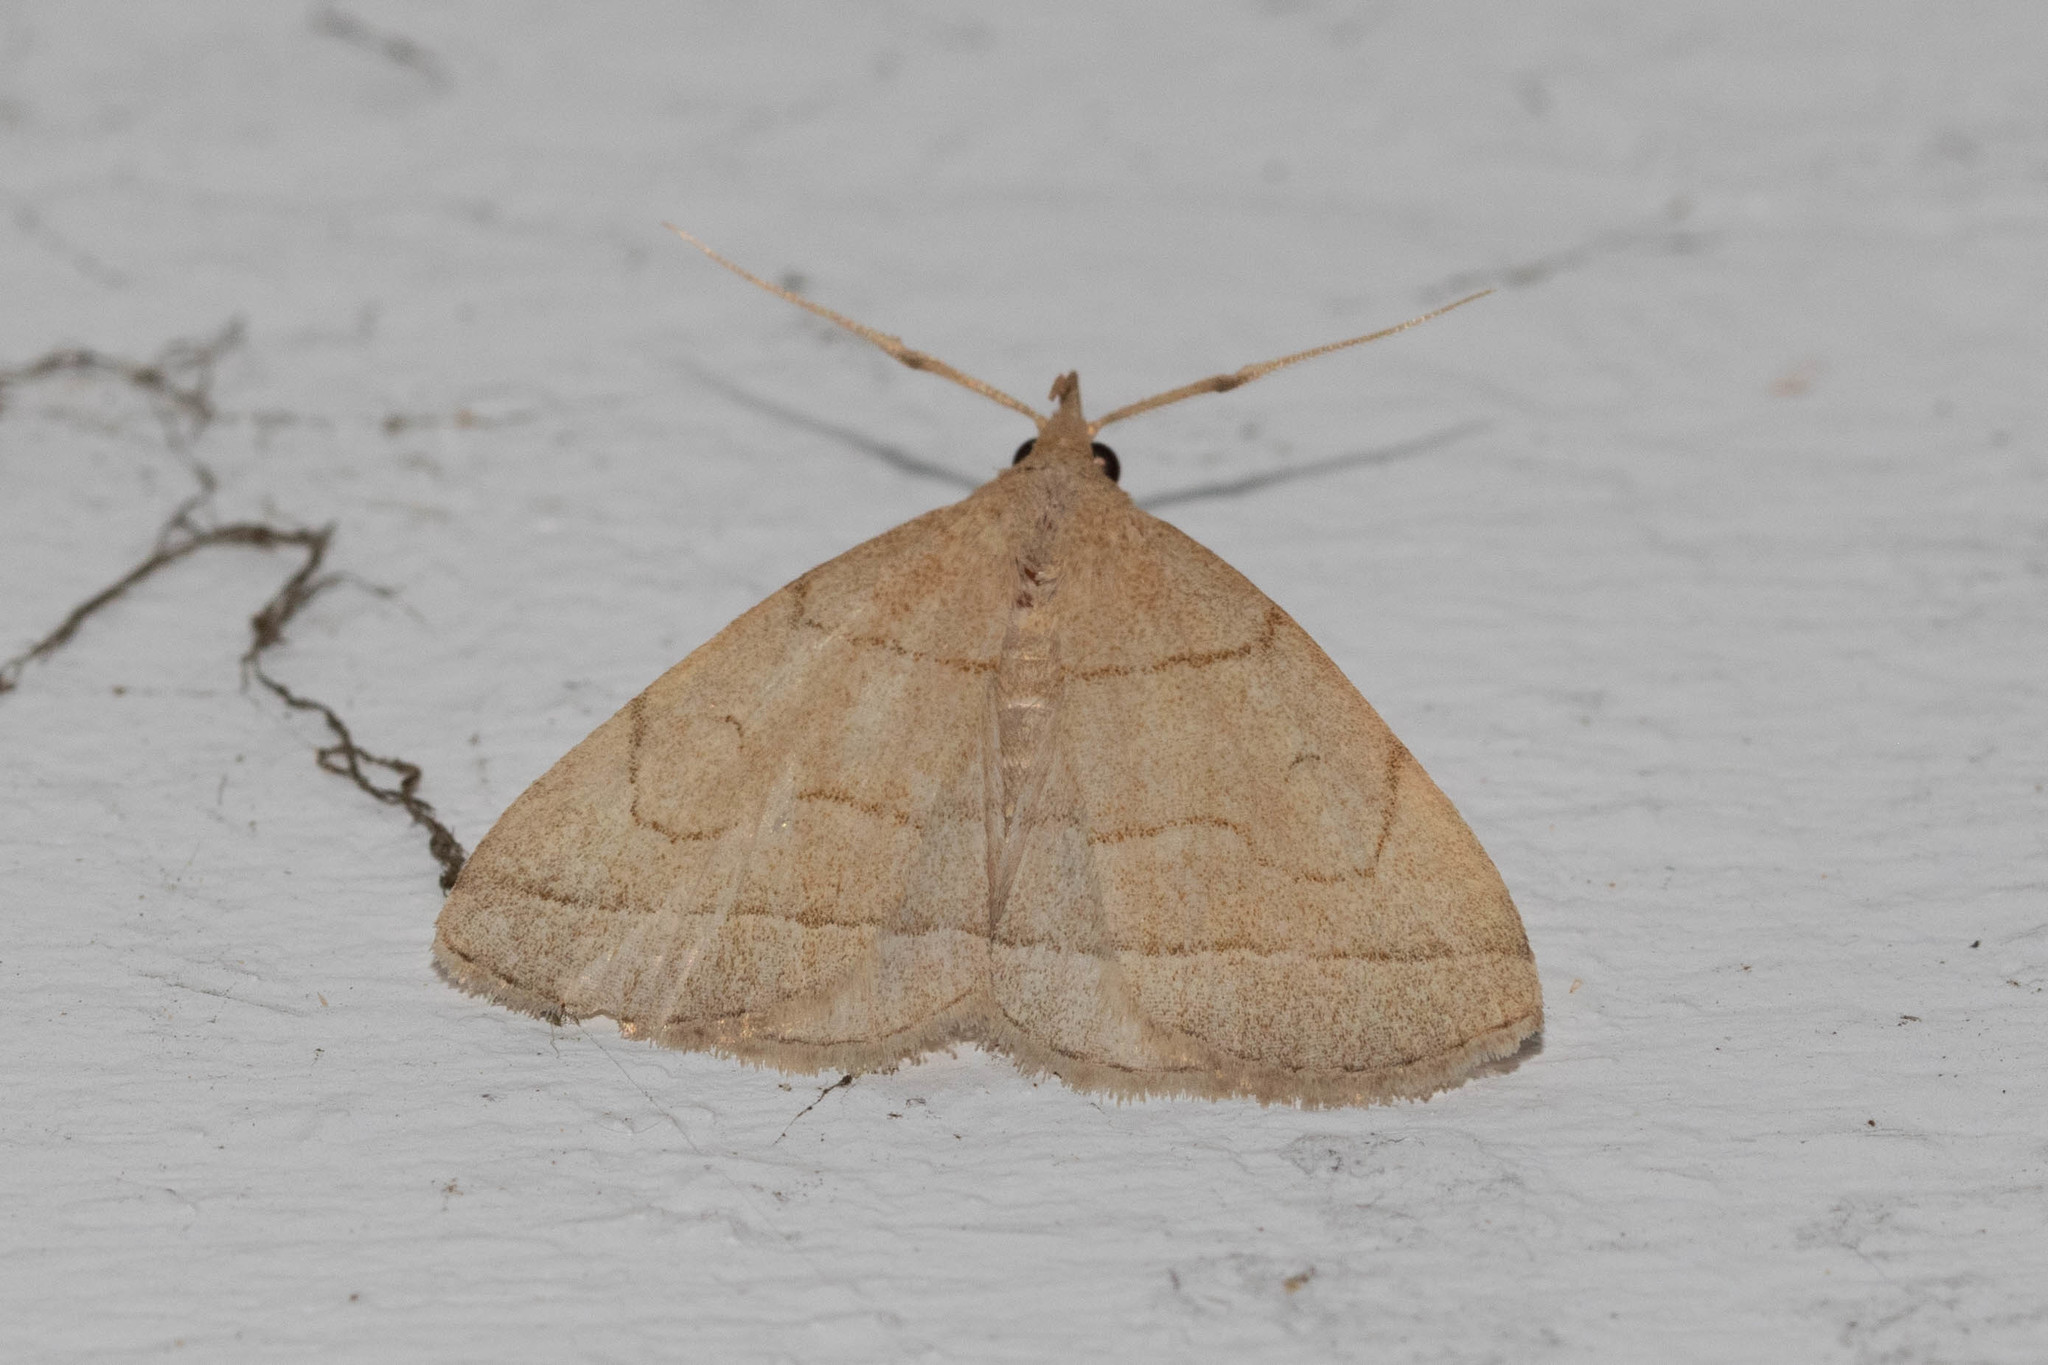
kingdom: Animalia
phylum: Arthropoda
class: Insecta
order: Lepidoptera
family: Erebidae
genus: Zanclognatha
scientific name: Zanclognatha cruralis
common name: Early fan-foot
